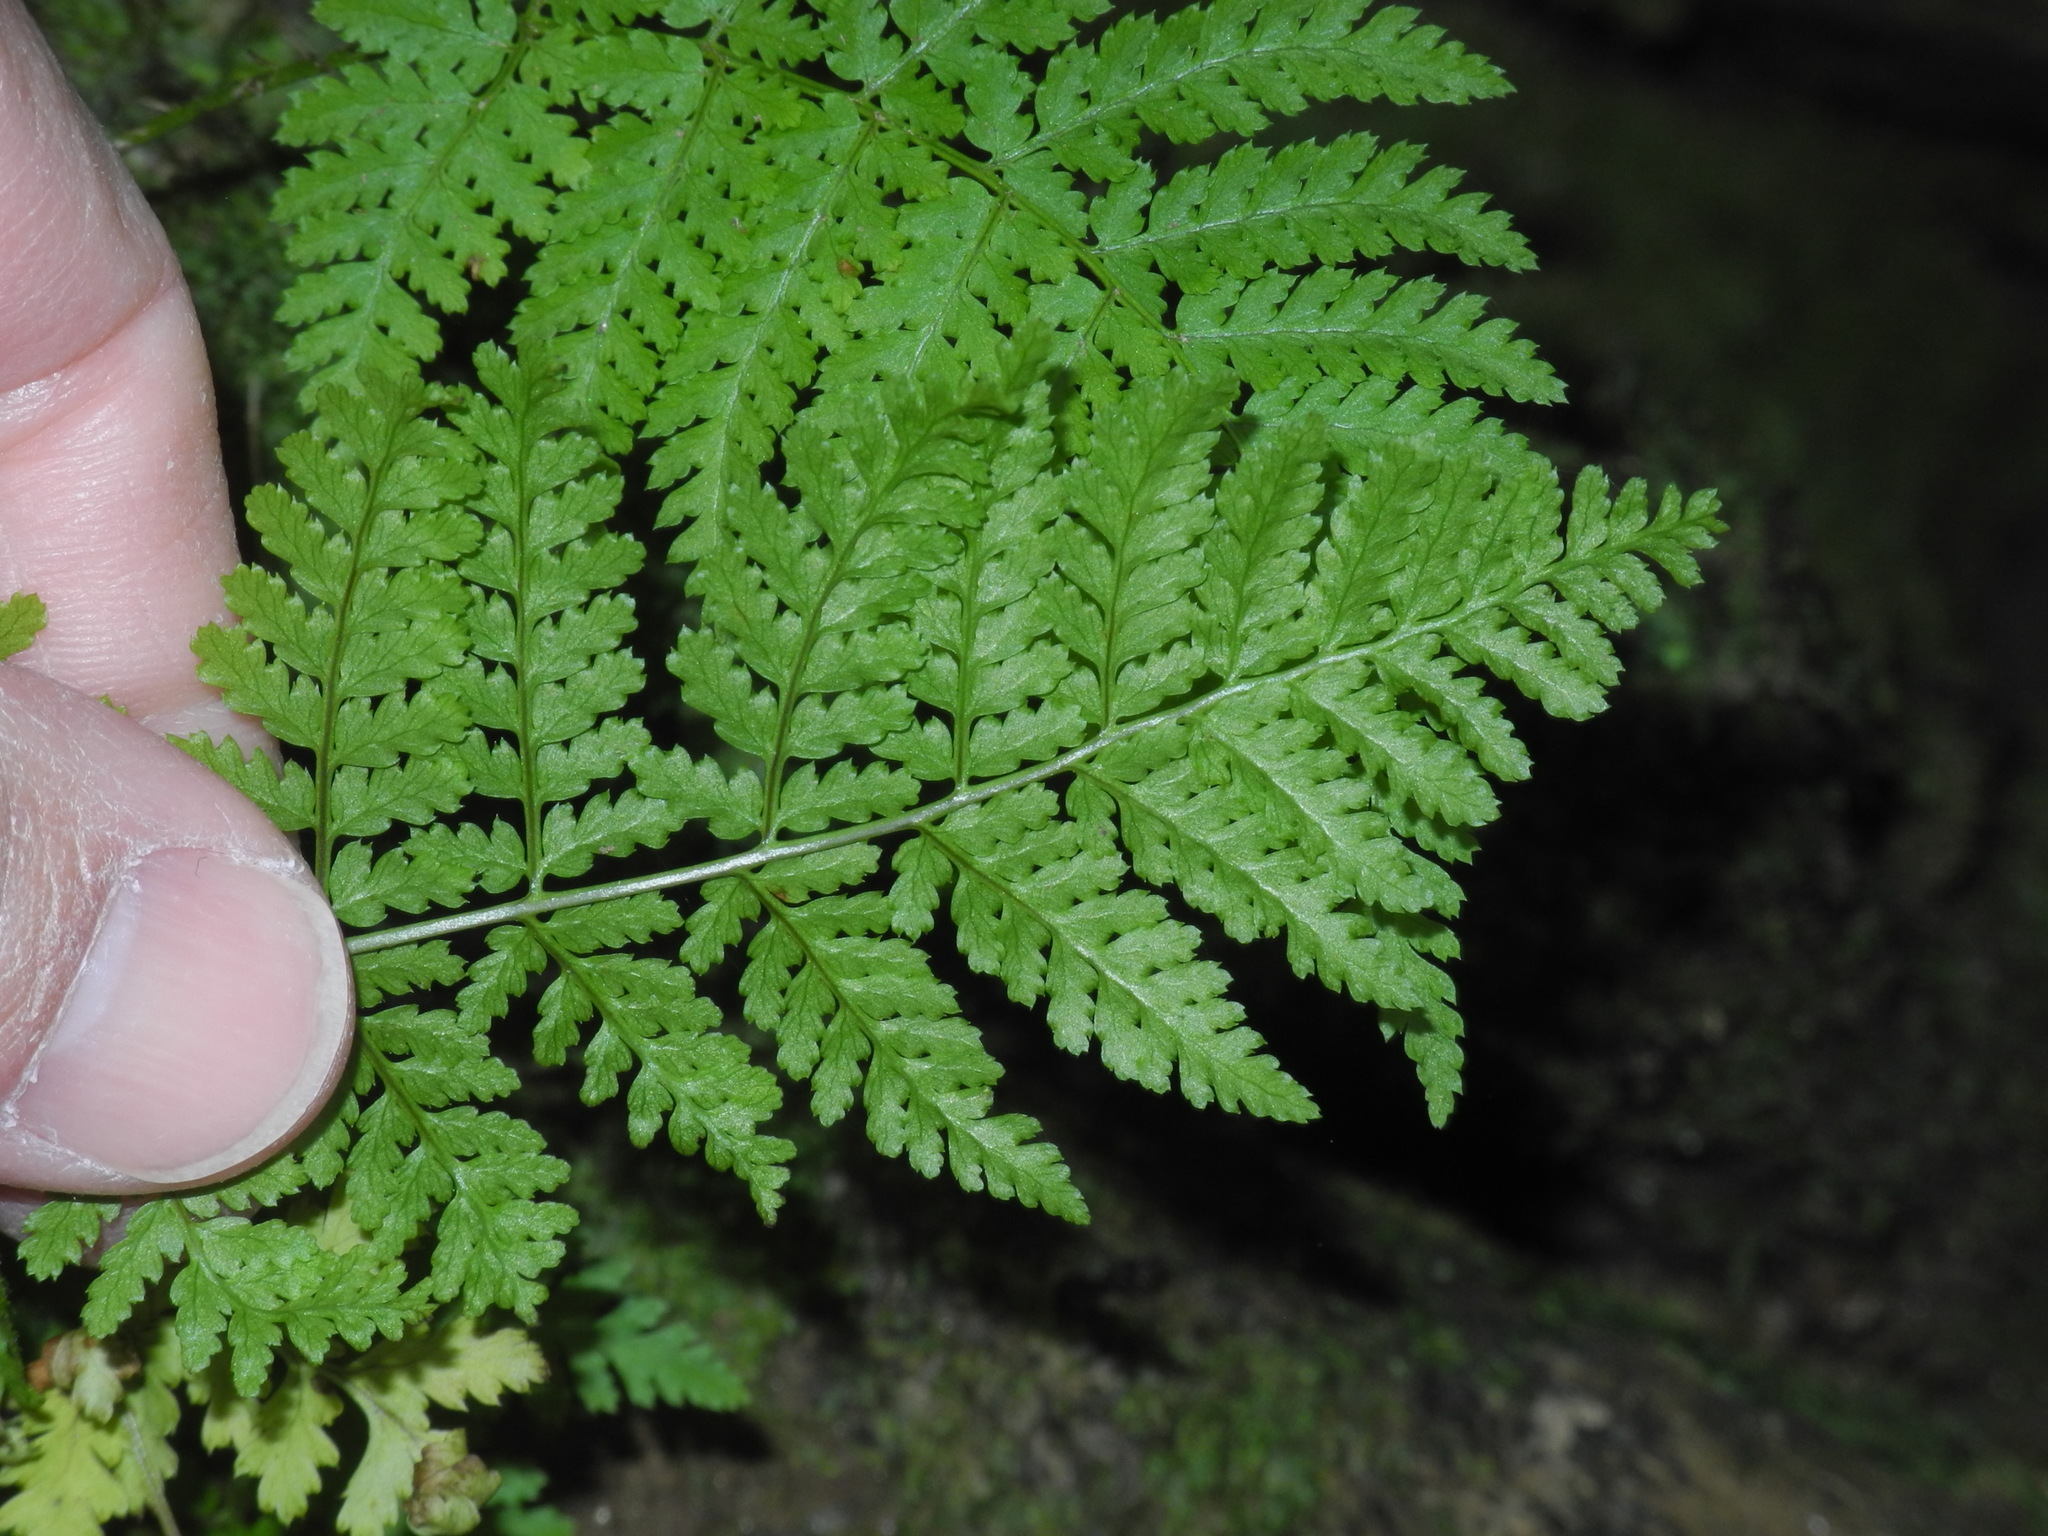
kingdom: Plantae
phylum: Tracheophyta
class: Polypodiopsida
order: Polypodiales
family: Dryopteridaceae
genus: Dryopteris
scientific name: Dryopteris intermedia
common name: Evergreen wood fern
